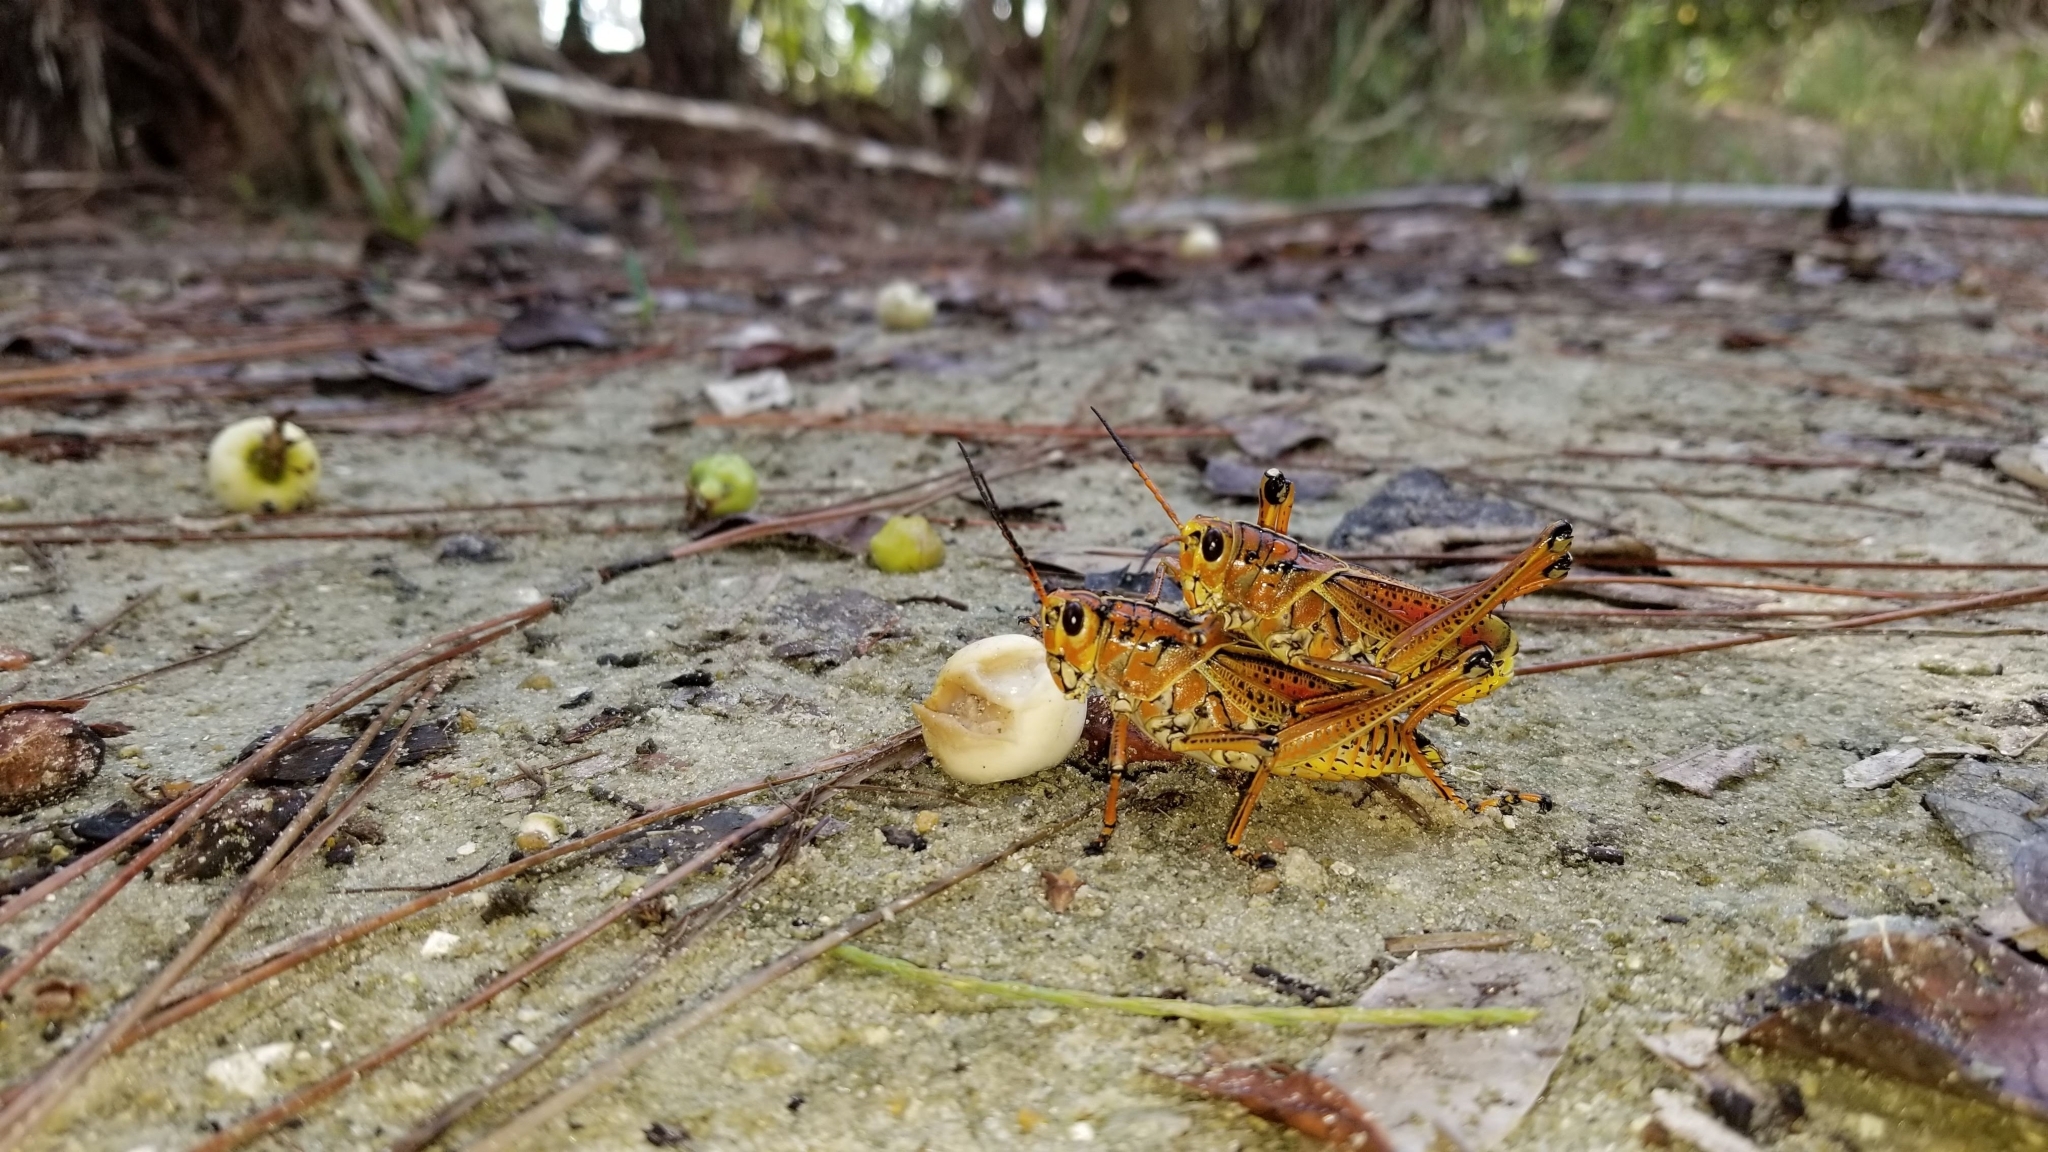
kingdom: Animalia
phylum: Arthropoda
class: Insecta
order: Orthoptera
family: Romaleidae
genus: Romalea
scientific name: Romalea microptera
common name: Eastern lubber grasshopper
